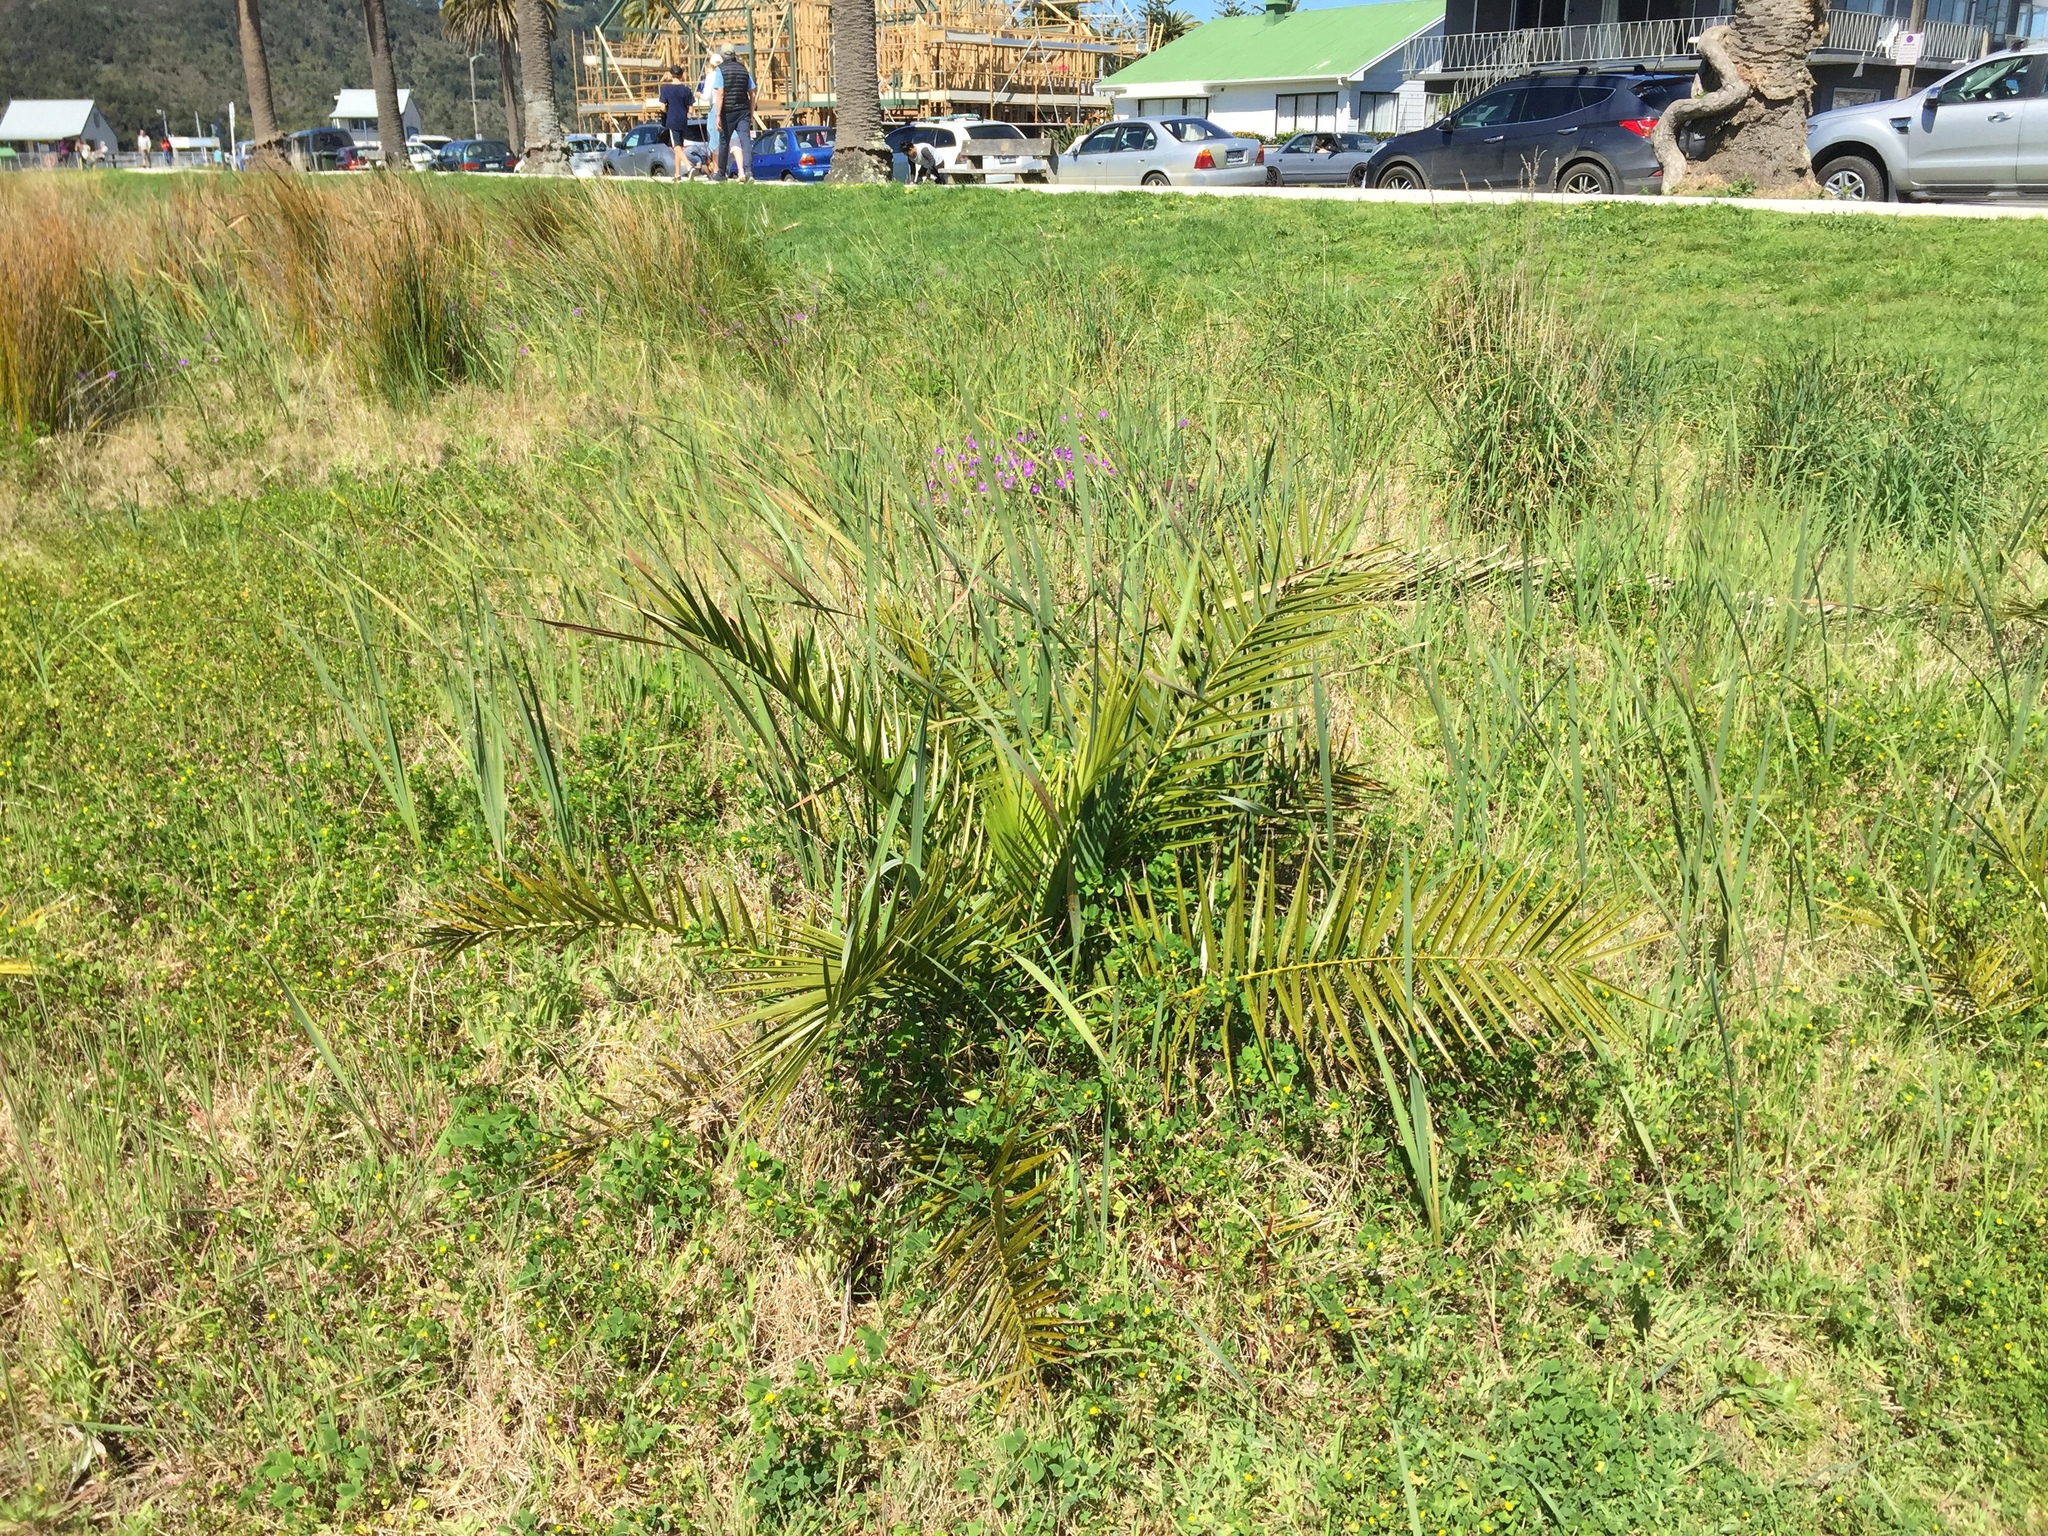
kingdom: Plantae
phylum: Tracheophyta
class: Liliopsida
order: Arecales
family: Arecaceae
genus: Phoenix
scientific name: Phoenix canariensis
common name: Canary island date palm
